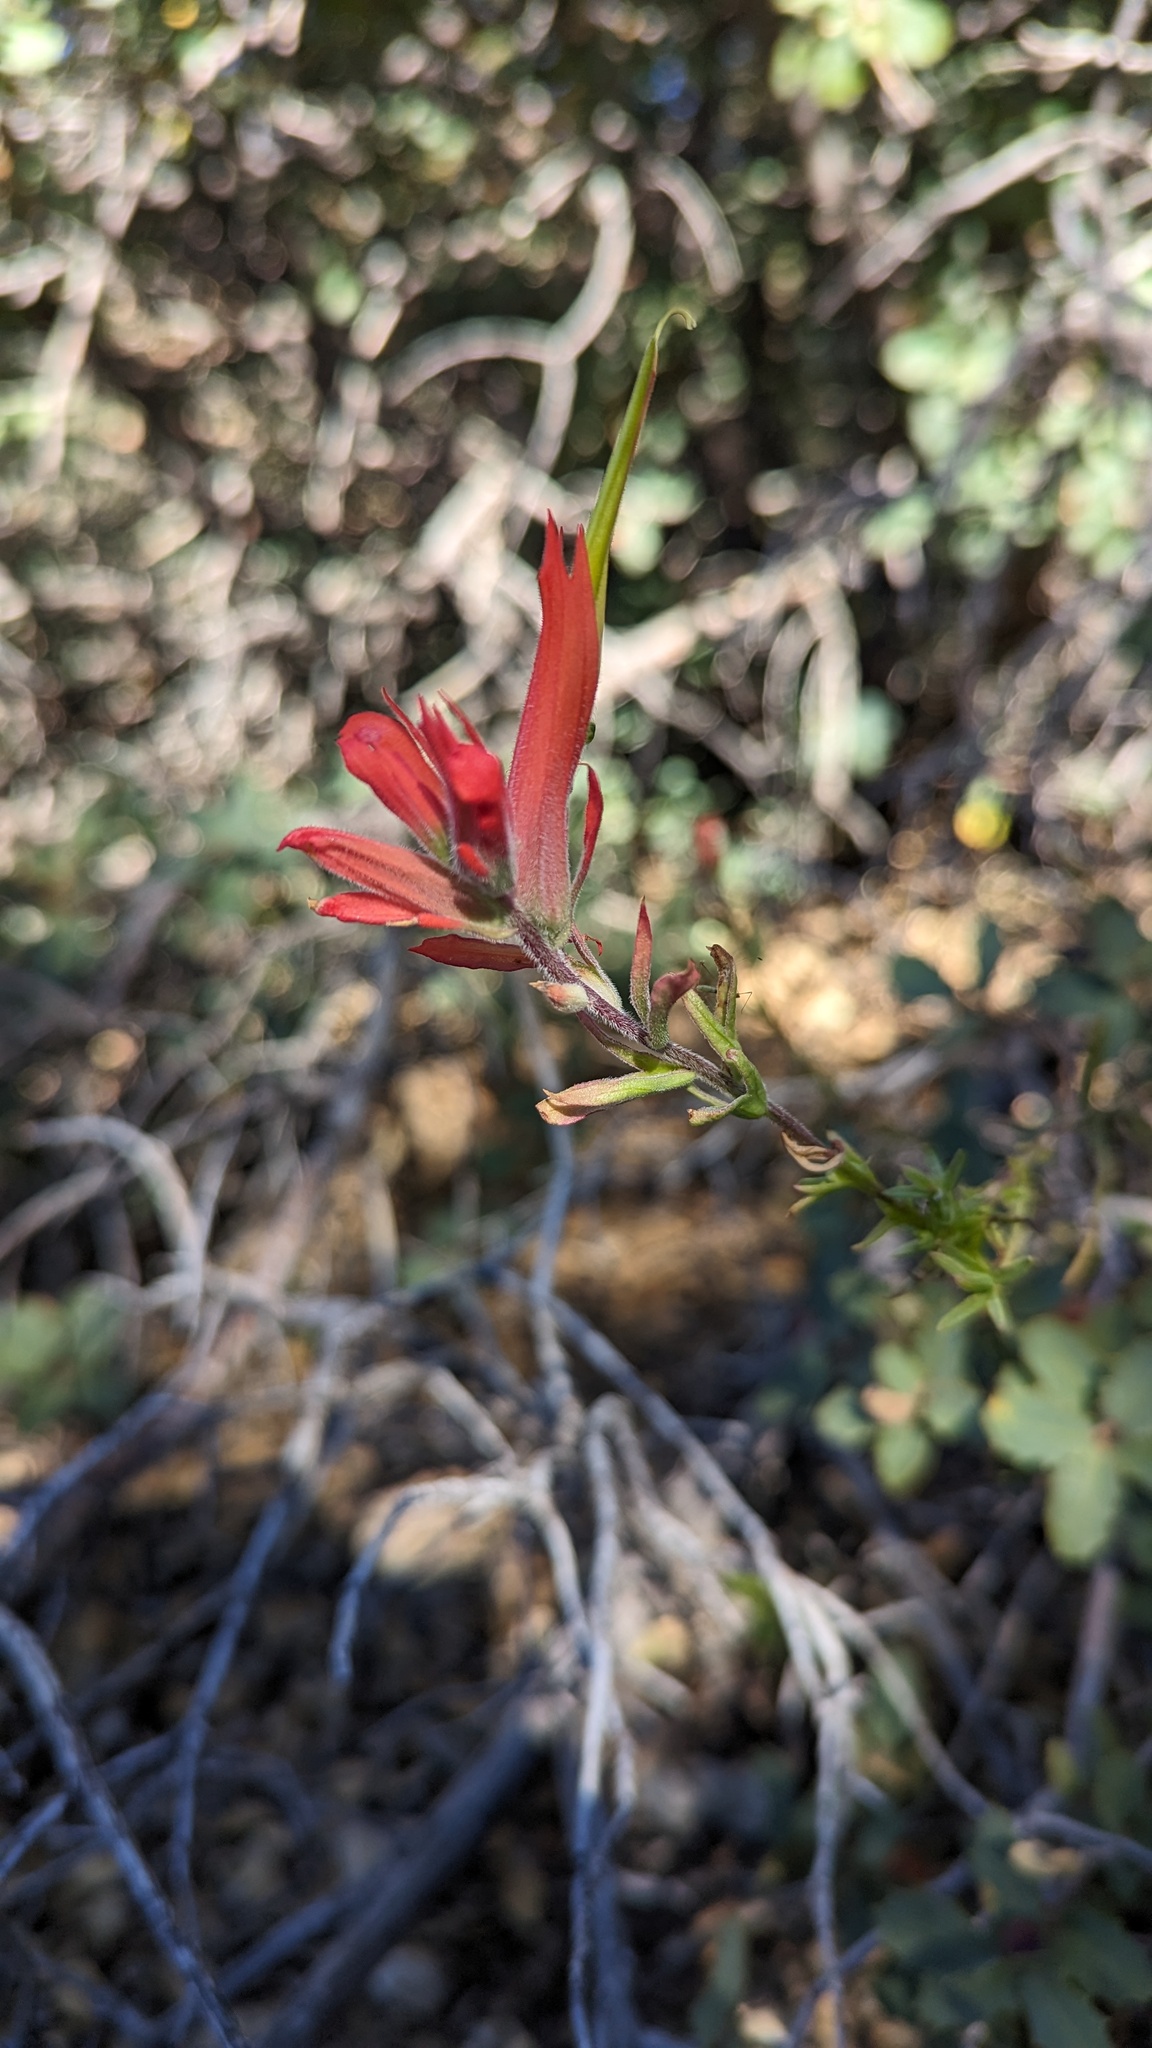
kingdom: Plantae
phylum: Tracheophyta
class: Magnoliopsida
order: Lamiales
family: Orobanchaceae
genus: Castilleja
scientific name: Castilleja linariifolia
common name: Wyoming paintbrush
